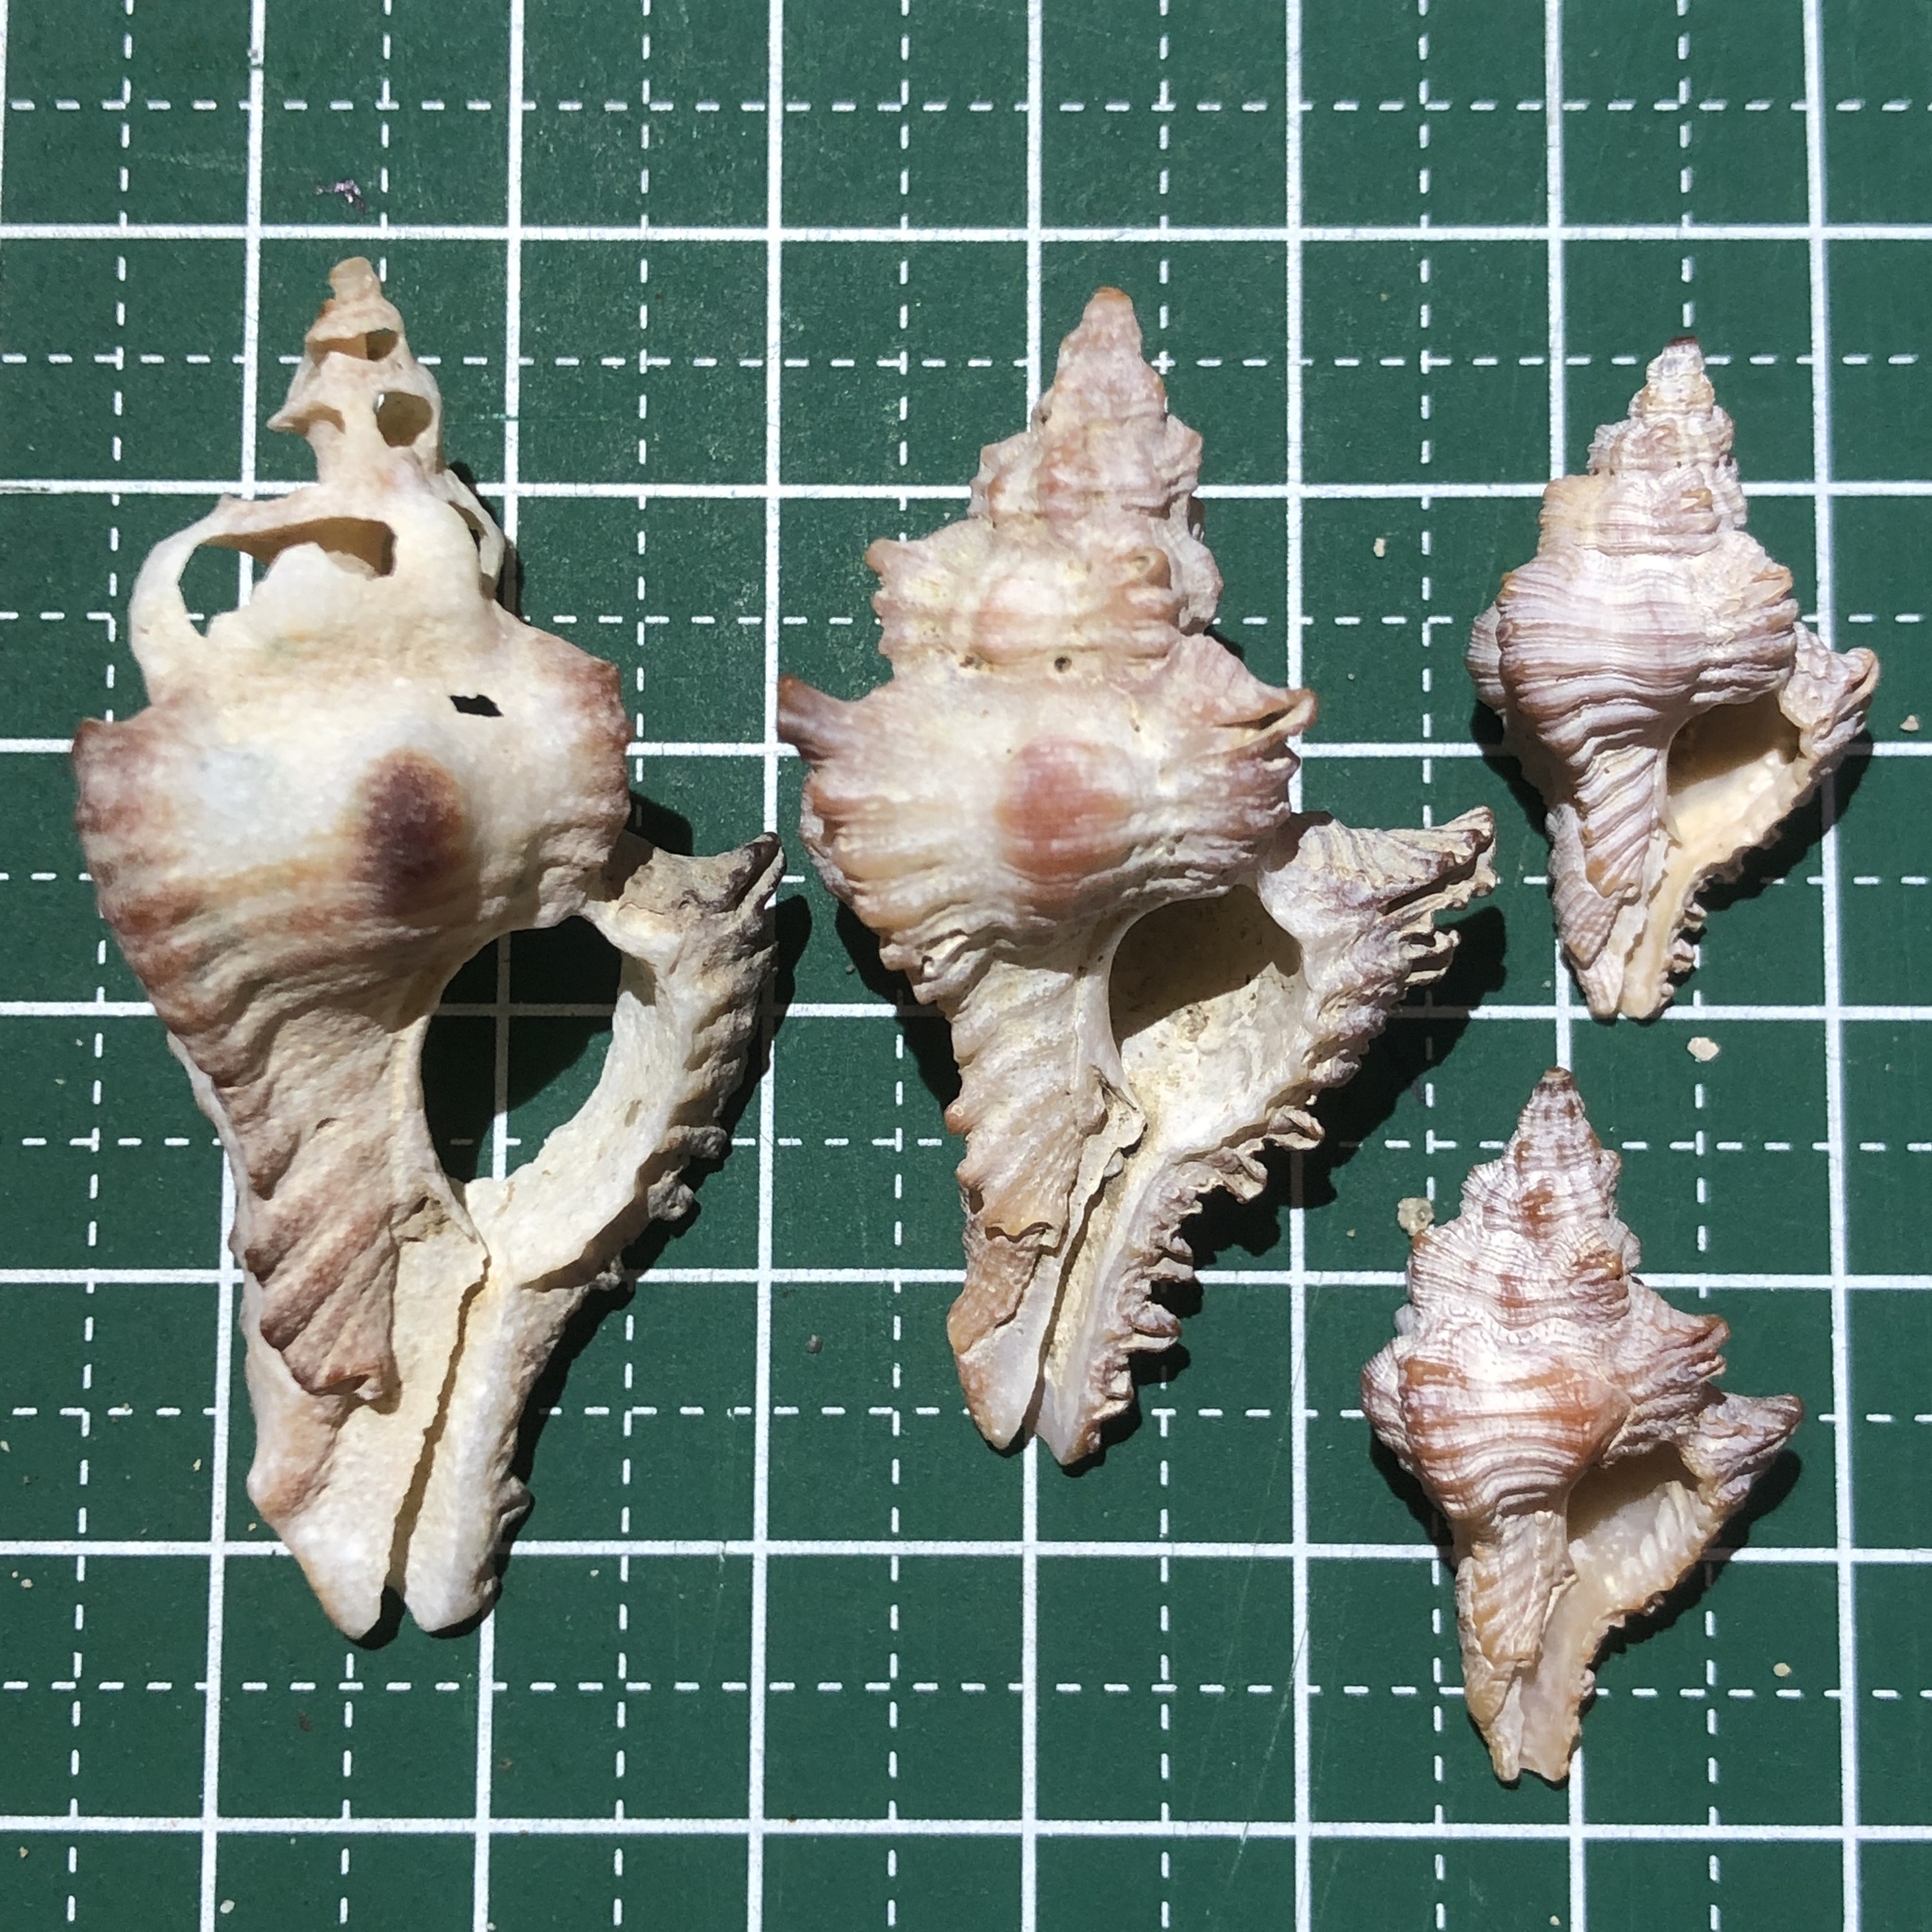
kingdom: Animalia
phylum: Mollusca
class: Gastropoda
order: Neogastropoda
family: Muricidae
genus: Chicoreus
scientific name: Chicoreus brunneus
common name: Adusta murex
